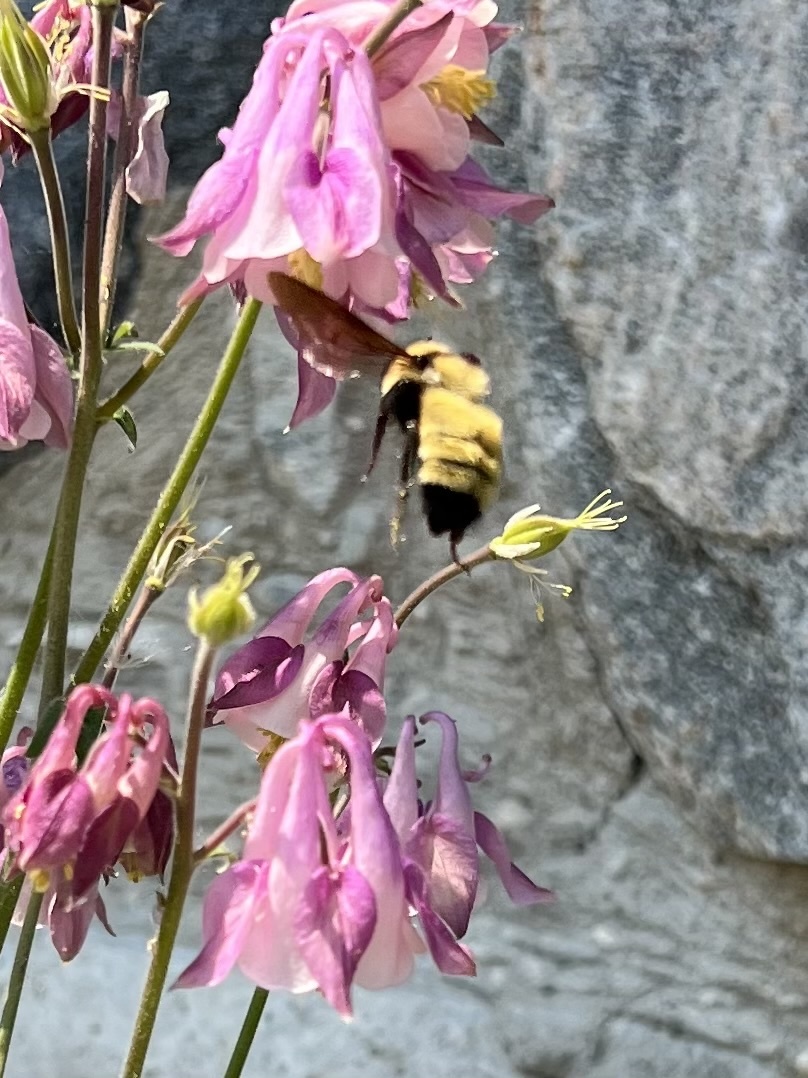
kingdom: Animalia
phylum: Arthropoda
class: Insecta
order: Hymenoptera
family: Apidae
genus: Bombus
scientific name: Bombus fervidus
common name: Yellow bumble bee
